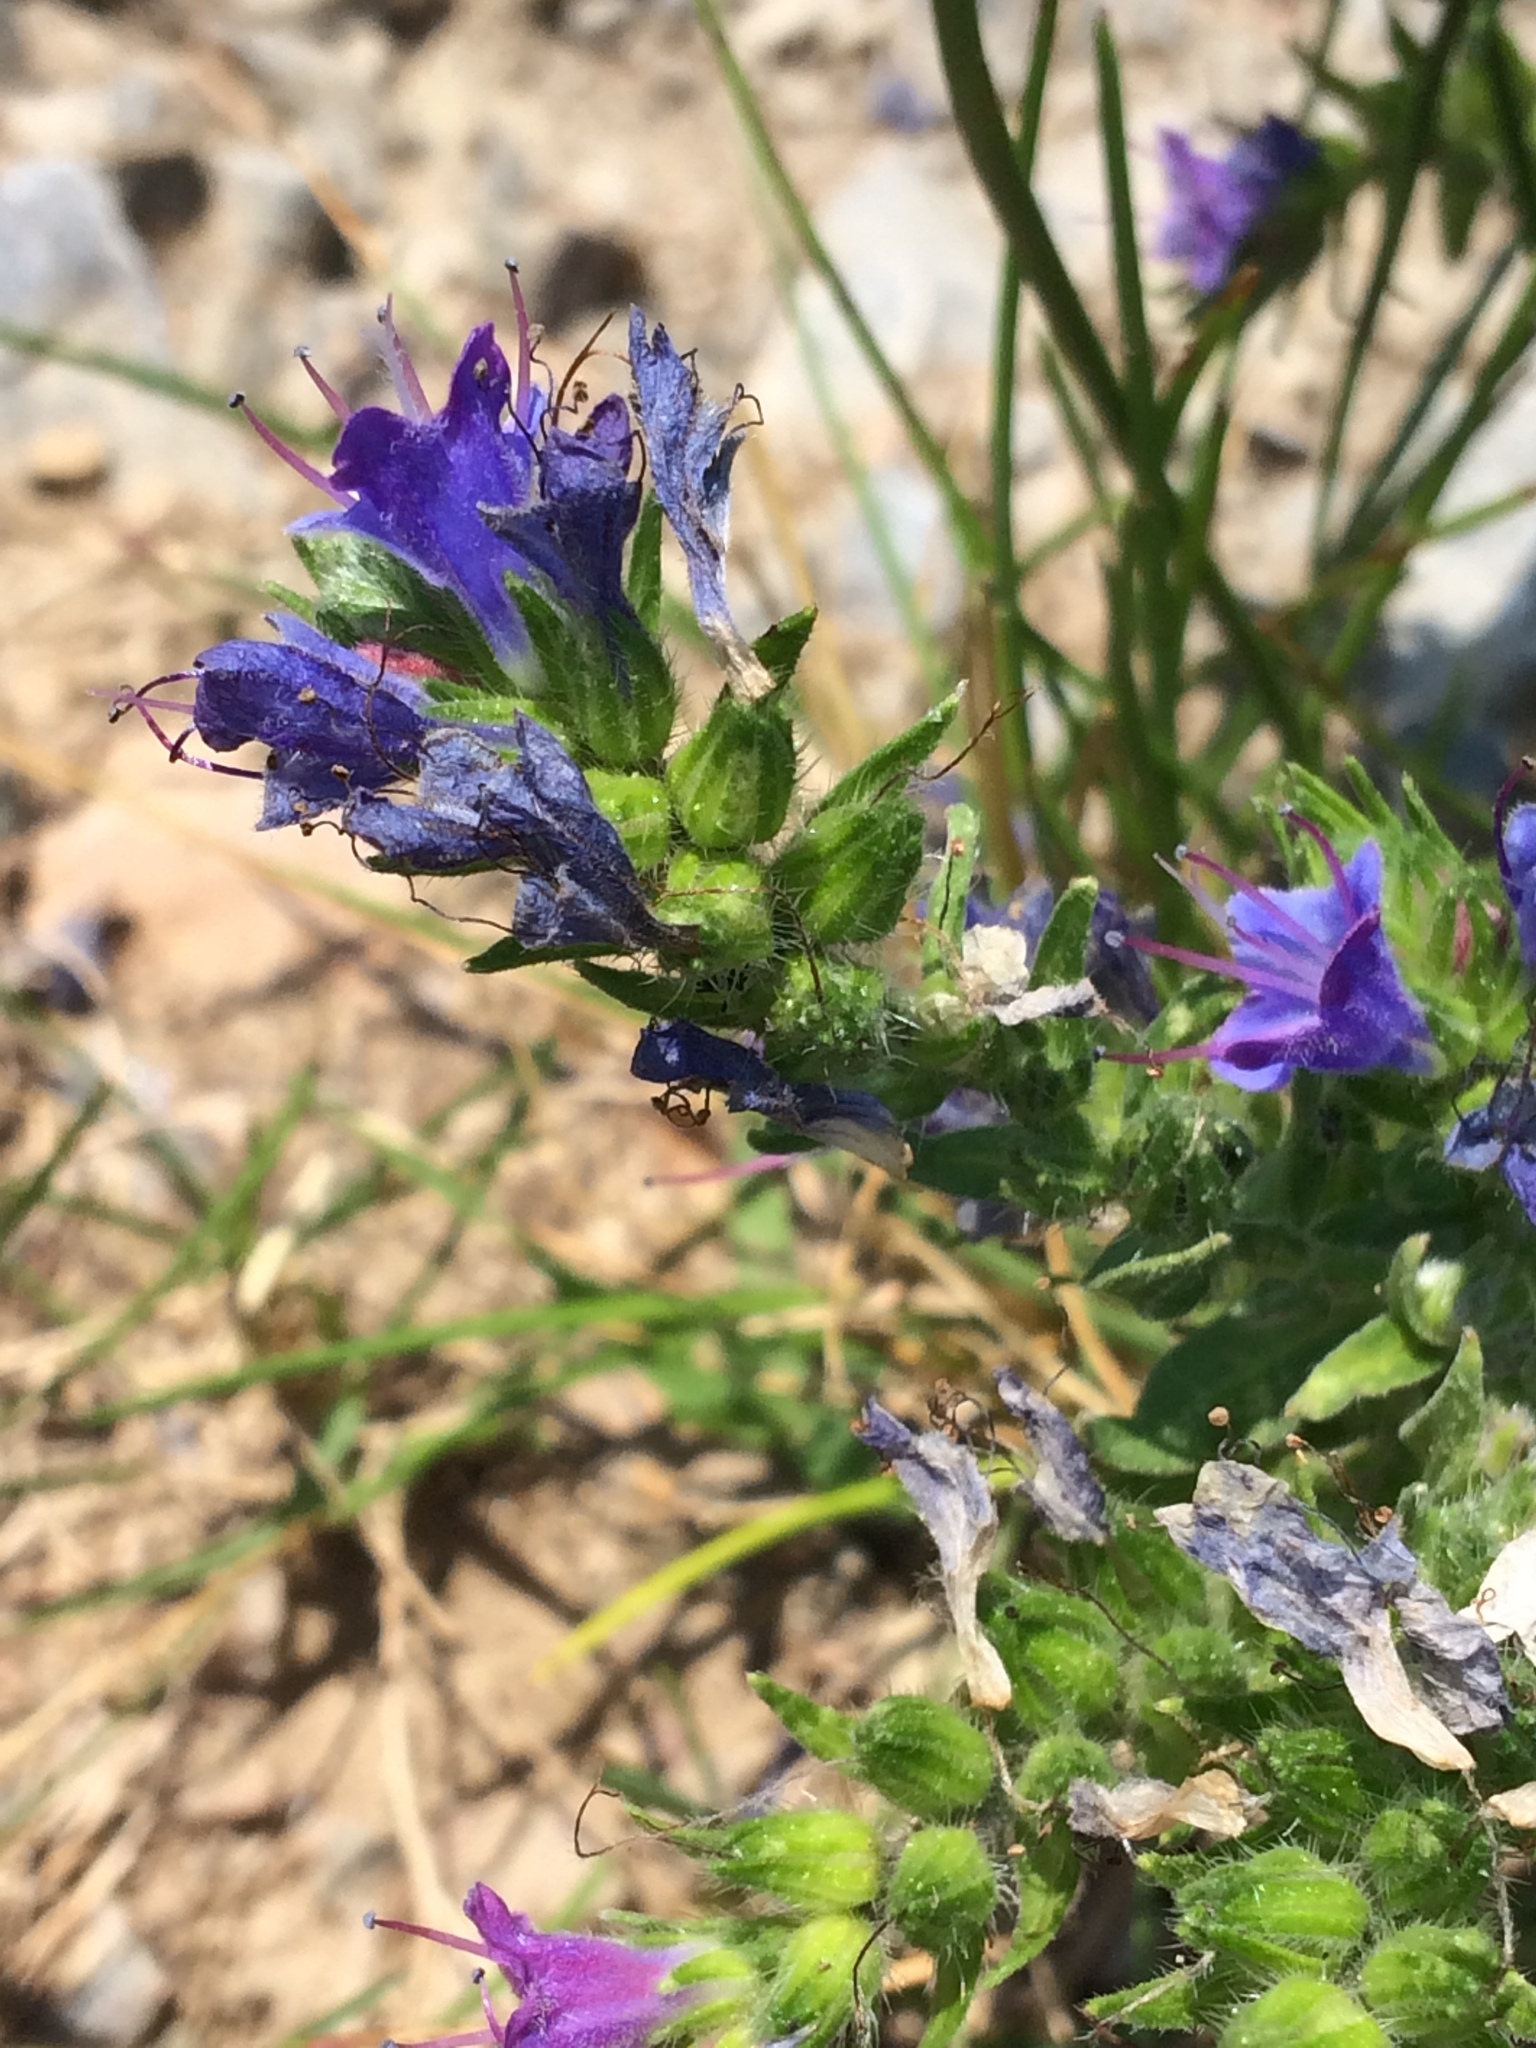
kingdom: Plantae
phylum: Tracheophyta
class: Magnoliopsida
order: Boraginales
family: Boraginaceae
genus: Echium
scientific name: Echium vulgare
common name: Common viper's bugloss
